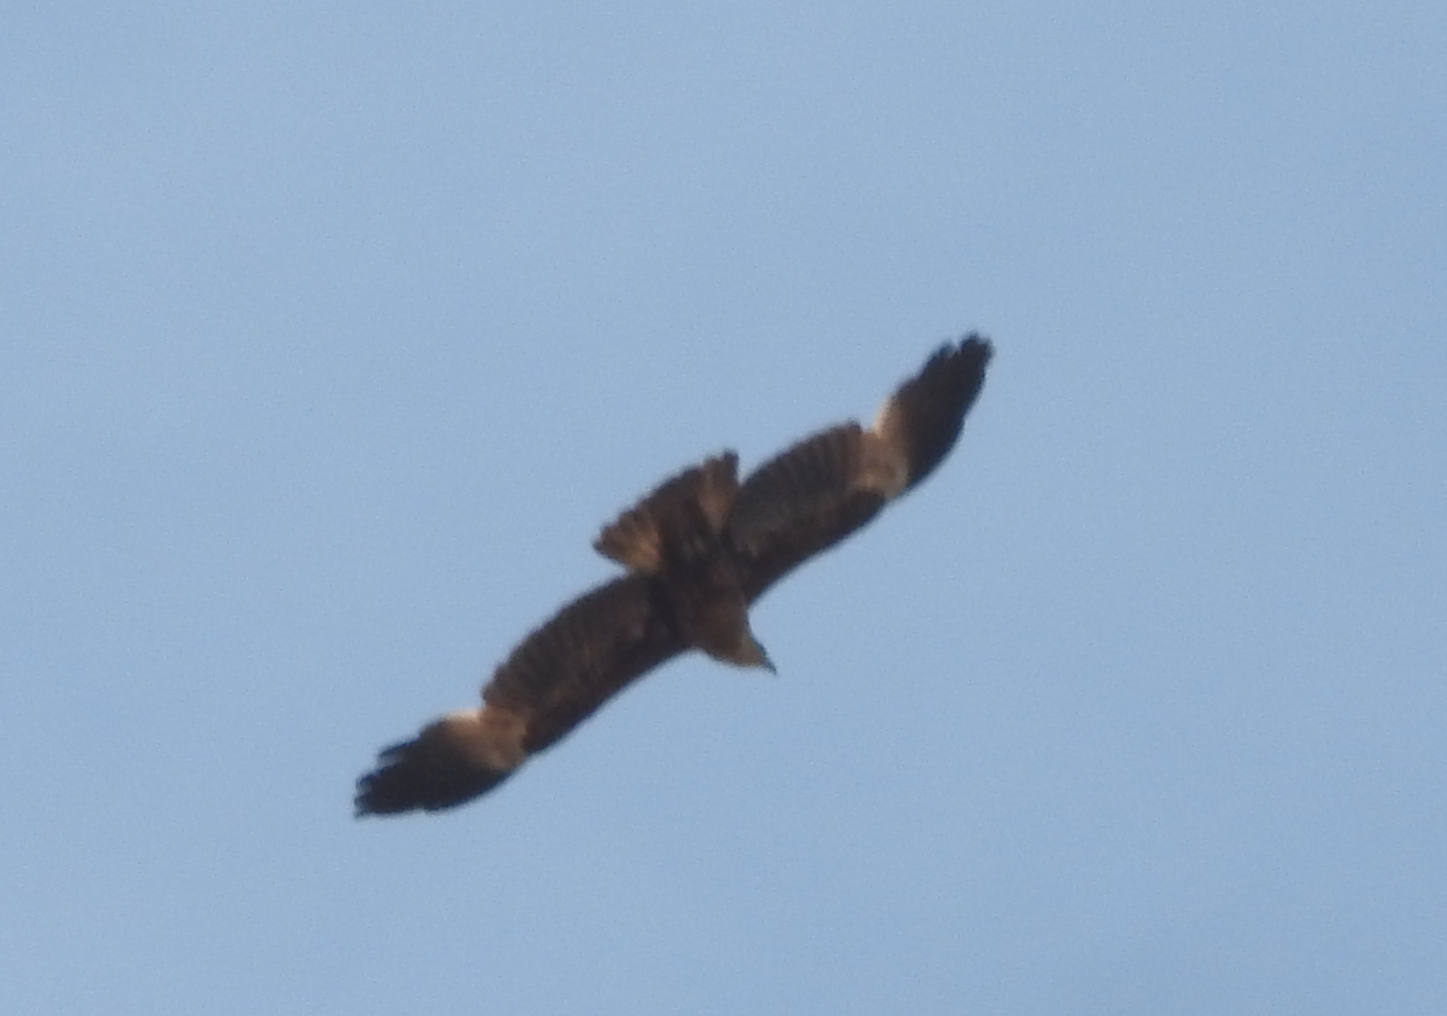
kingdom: Animalia
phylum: Chordata
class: Aves
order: Accipitriformes
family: Accipitridae
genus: Haliastur
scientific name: Haliastur indus
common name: Brahminy kite
